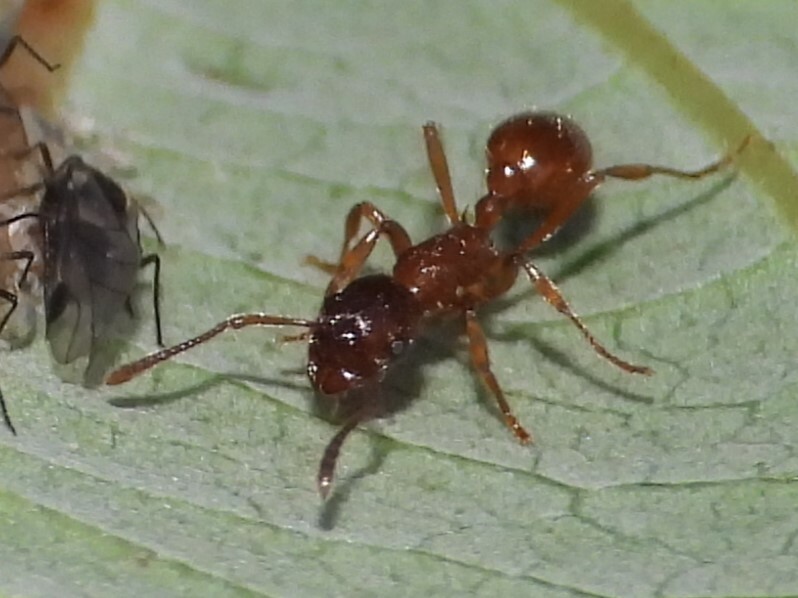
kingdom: Animalia
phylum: Arthropoda
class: Insecta
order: Hymenoptera
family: Formicidae
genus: Myrmica
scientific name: Myrmica rubra
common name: European fire ant
